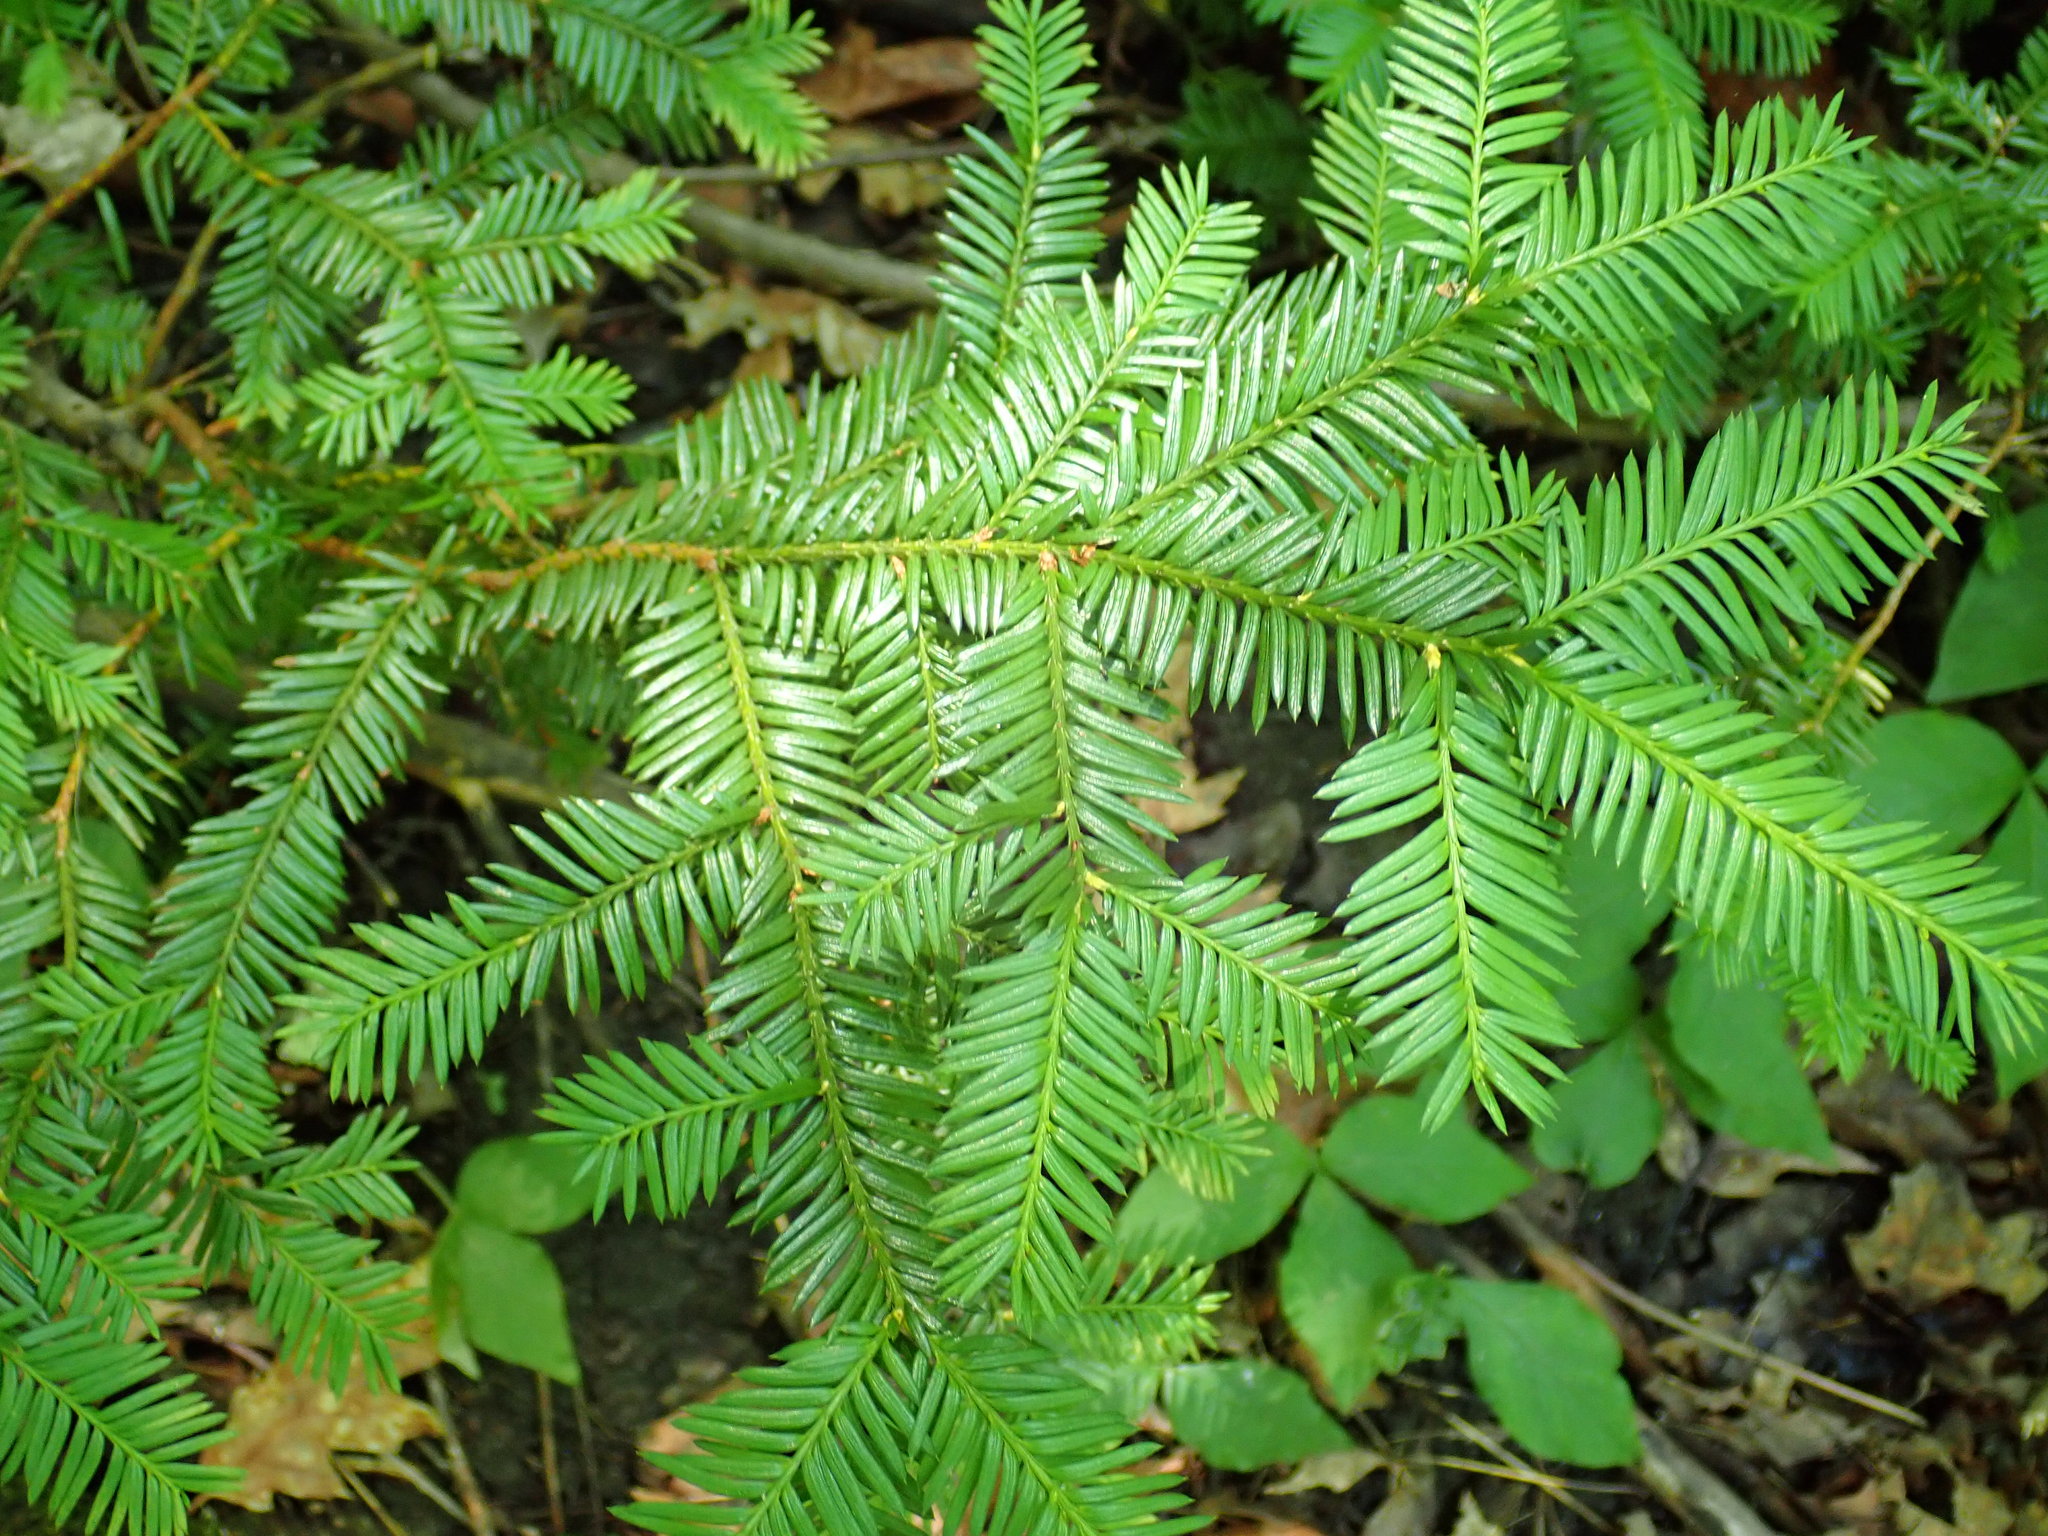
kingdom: Plantae
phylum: Tracheophyta
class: Pinopsida
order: Pinales
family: Taxaceae
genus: Taxus
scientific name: Taxus canadensis
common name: American yew
